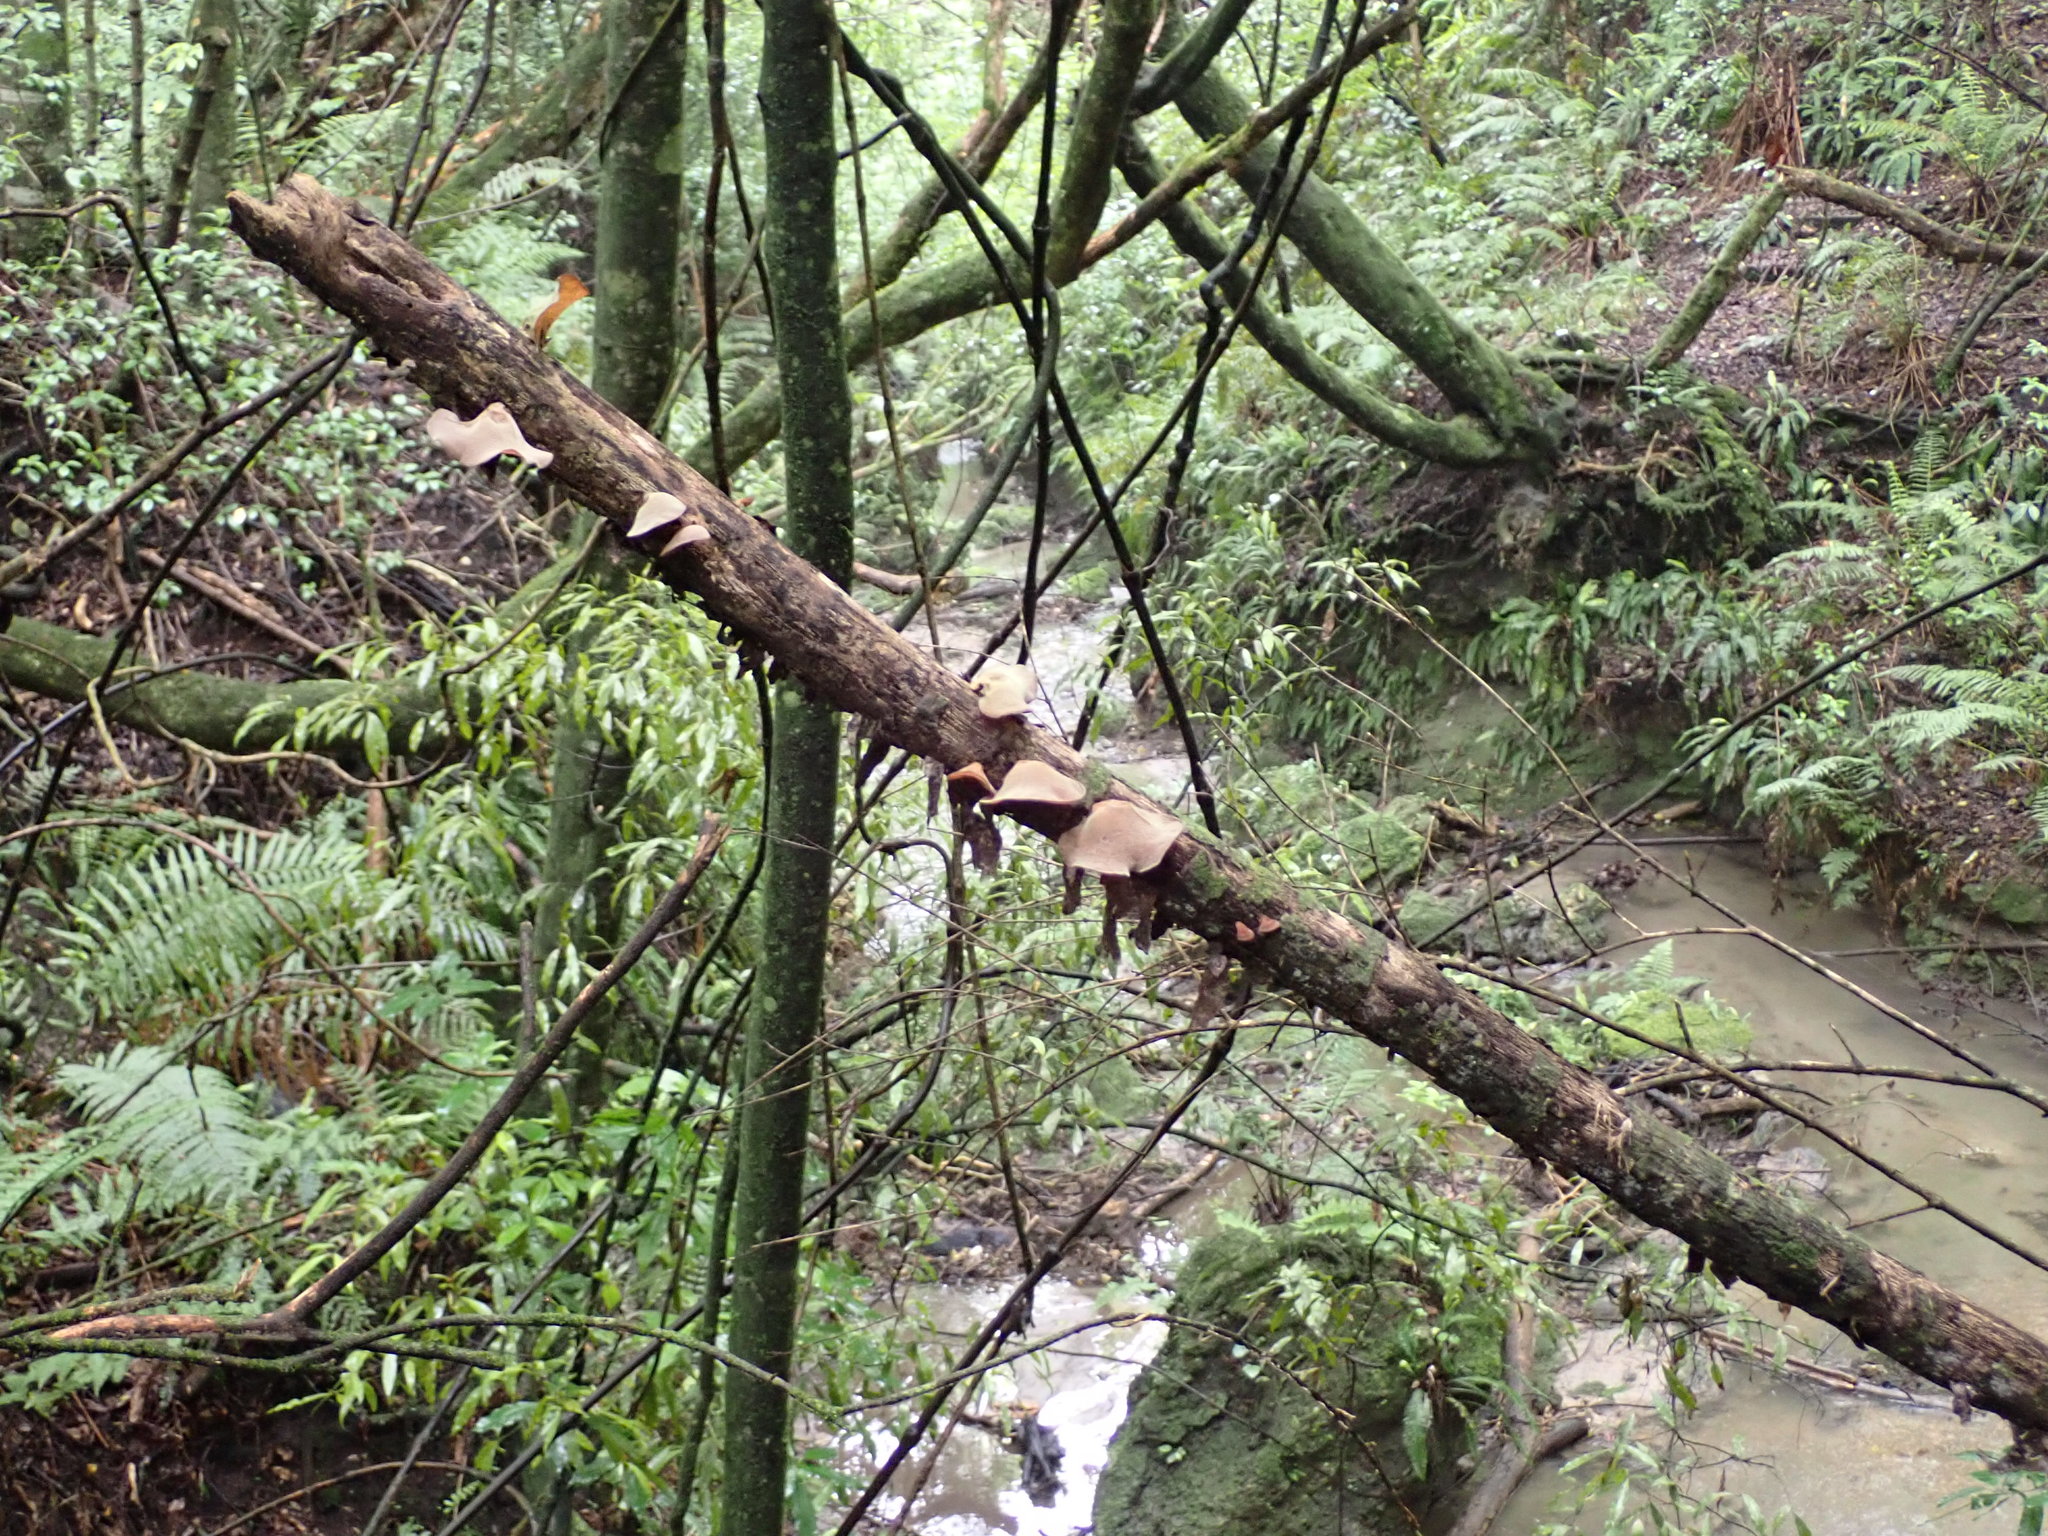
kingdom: Fungi
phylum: Basidiomycota
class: Agaricomycetes
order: Auriculariales
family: Auriculariaceae
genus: Auricularia
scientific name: Auricularia cornea
